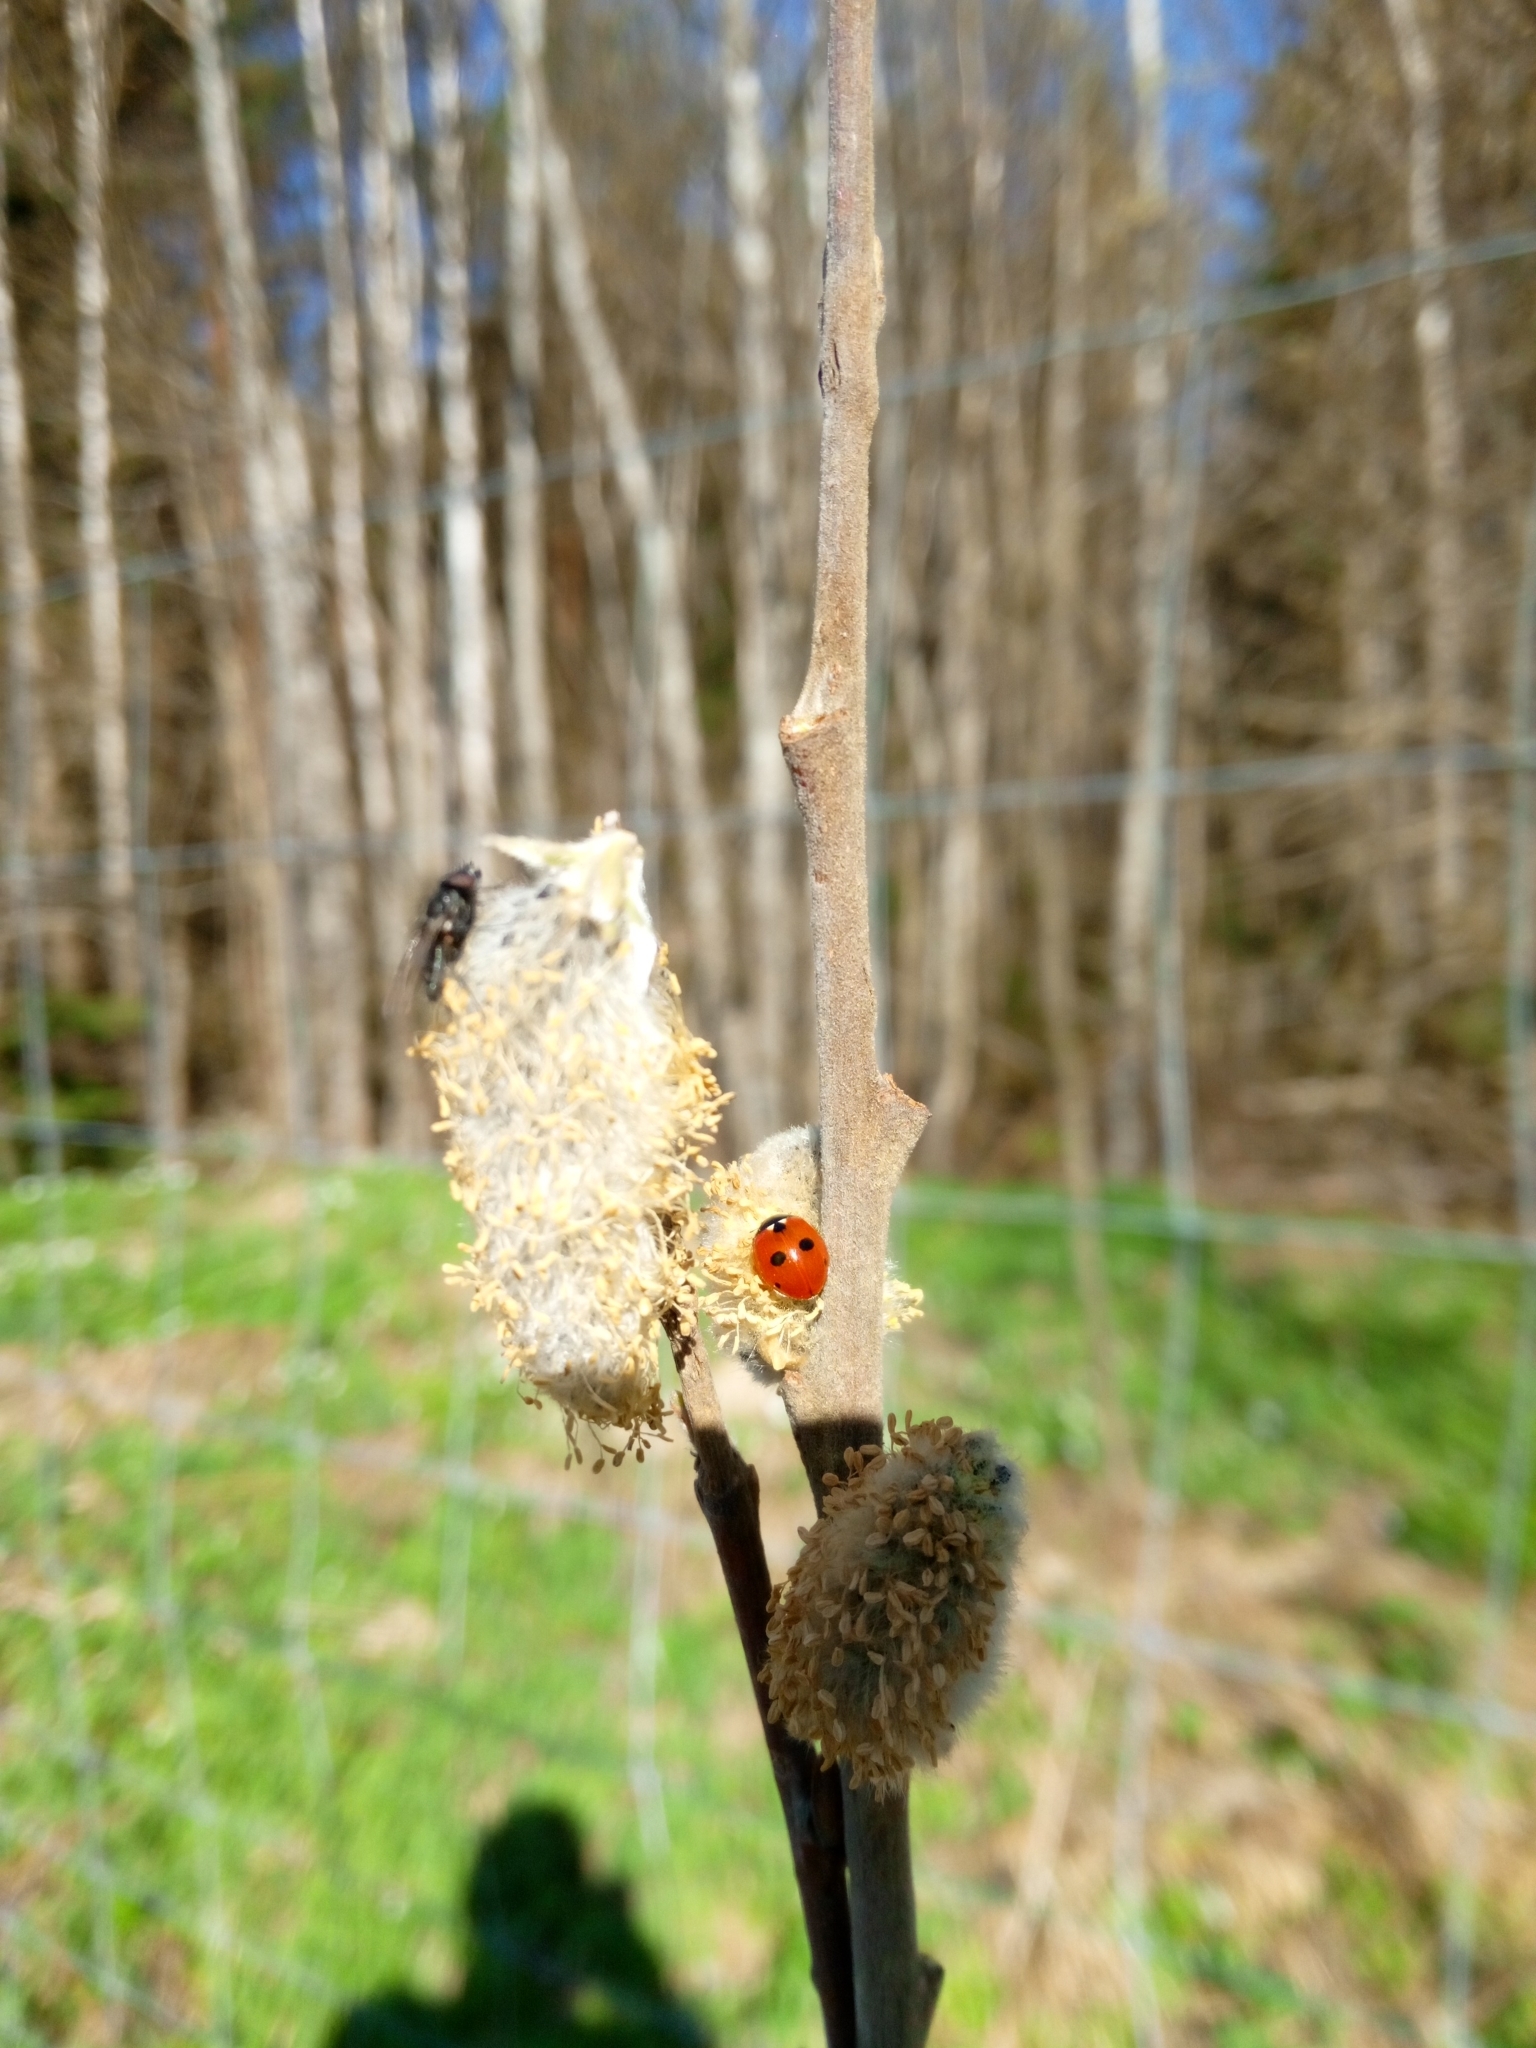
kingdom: Animalia
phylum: Arthropoda
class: Insecta
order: Coleoptera
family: Coccinellidae
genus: Coccinella
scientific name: Coccinella quinquepunctata
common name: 5-spot ladybird
